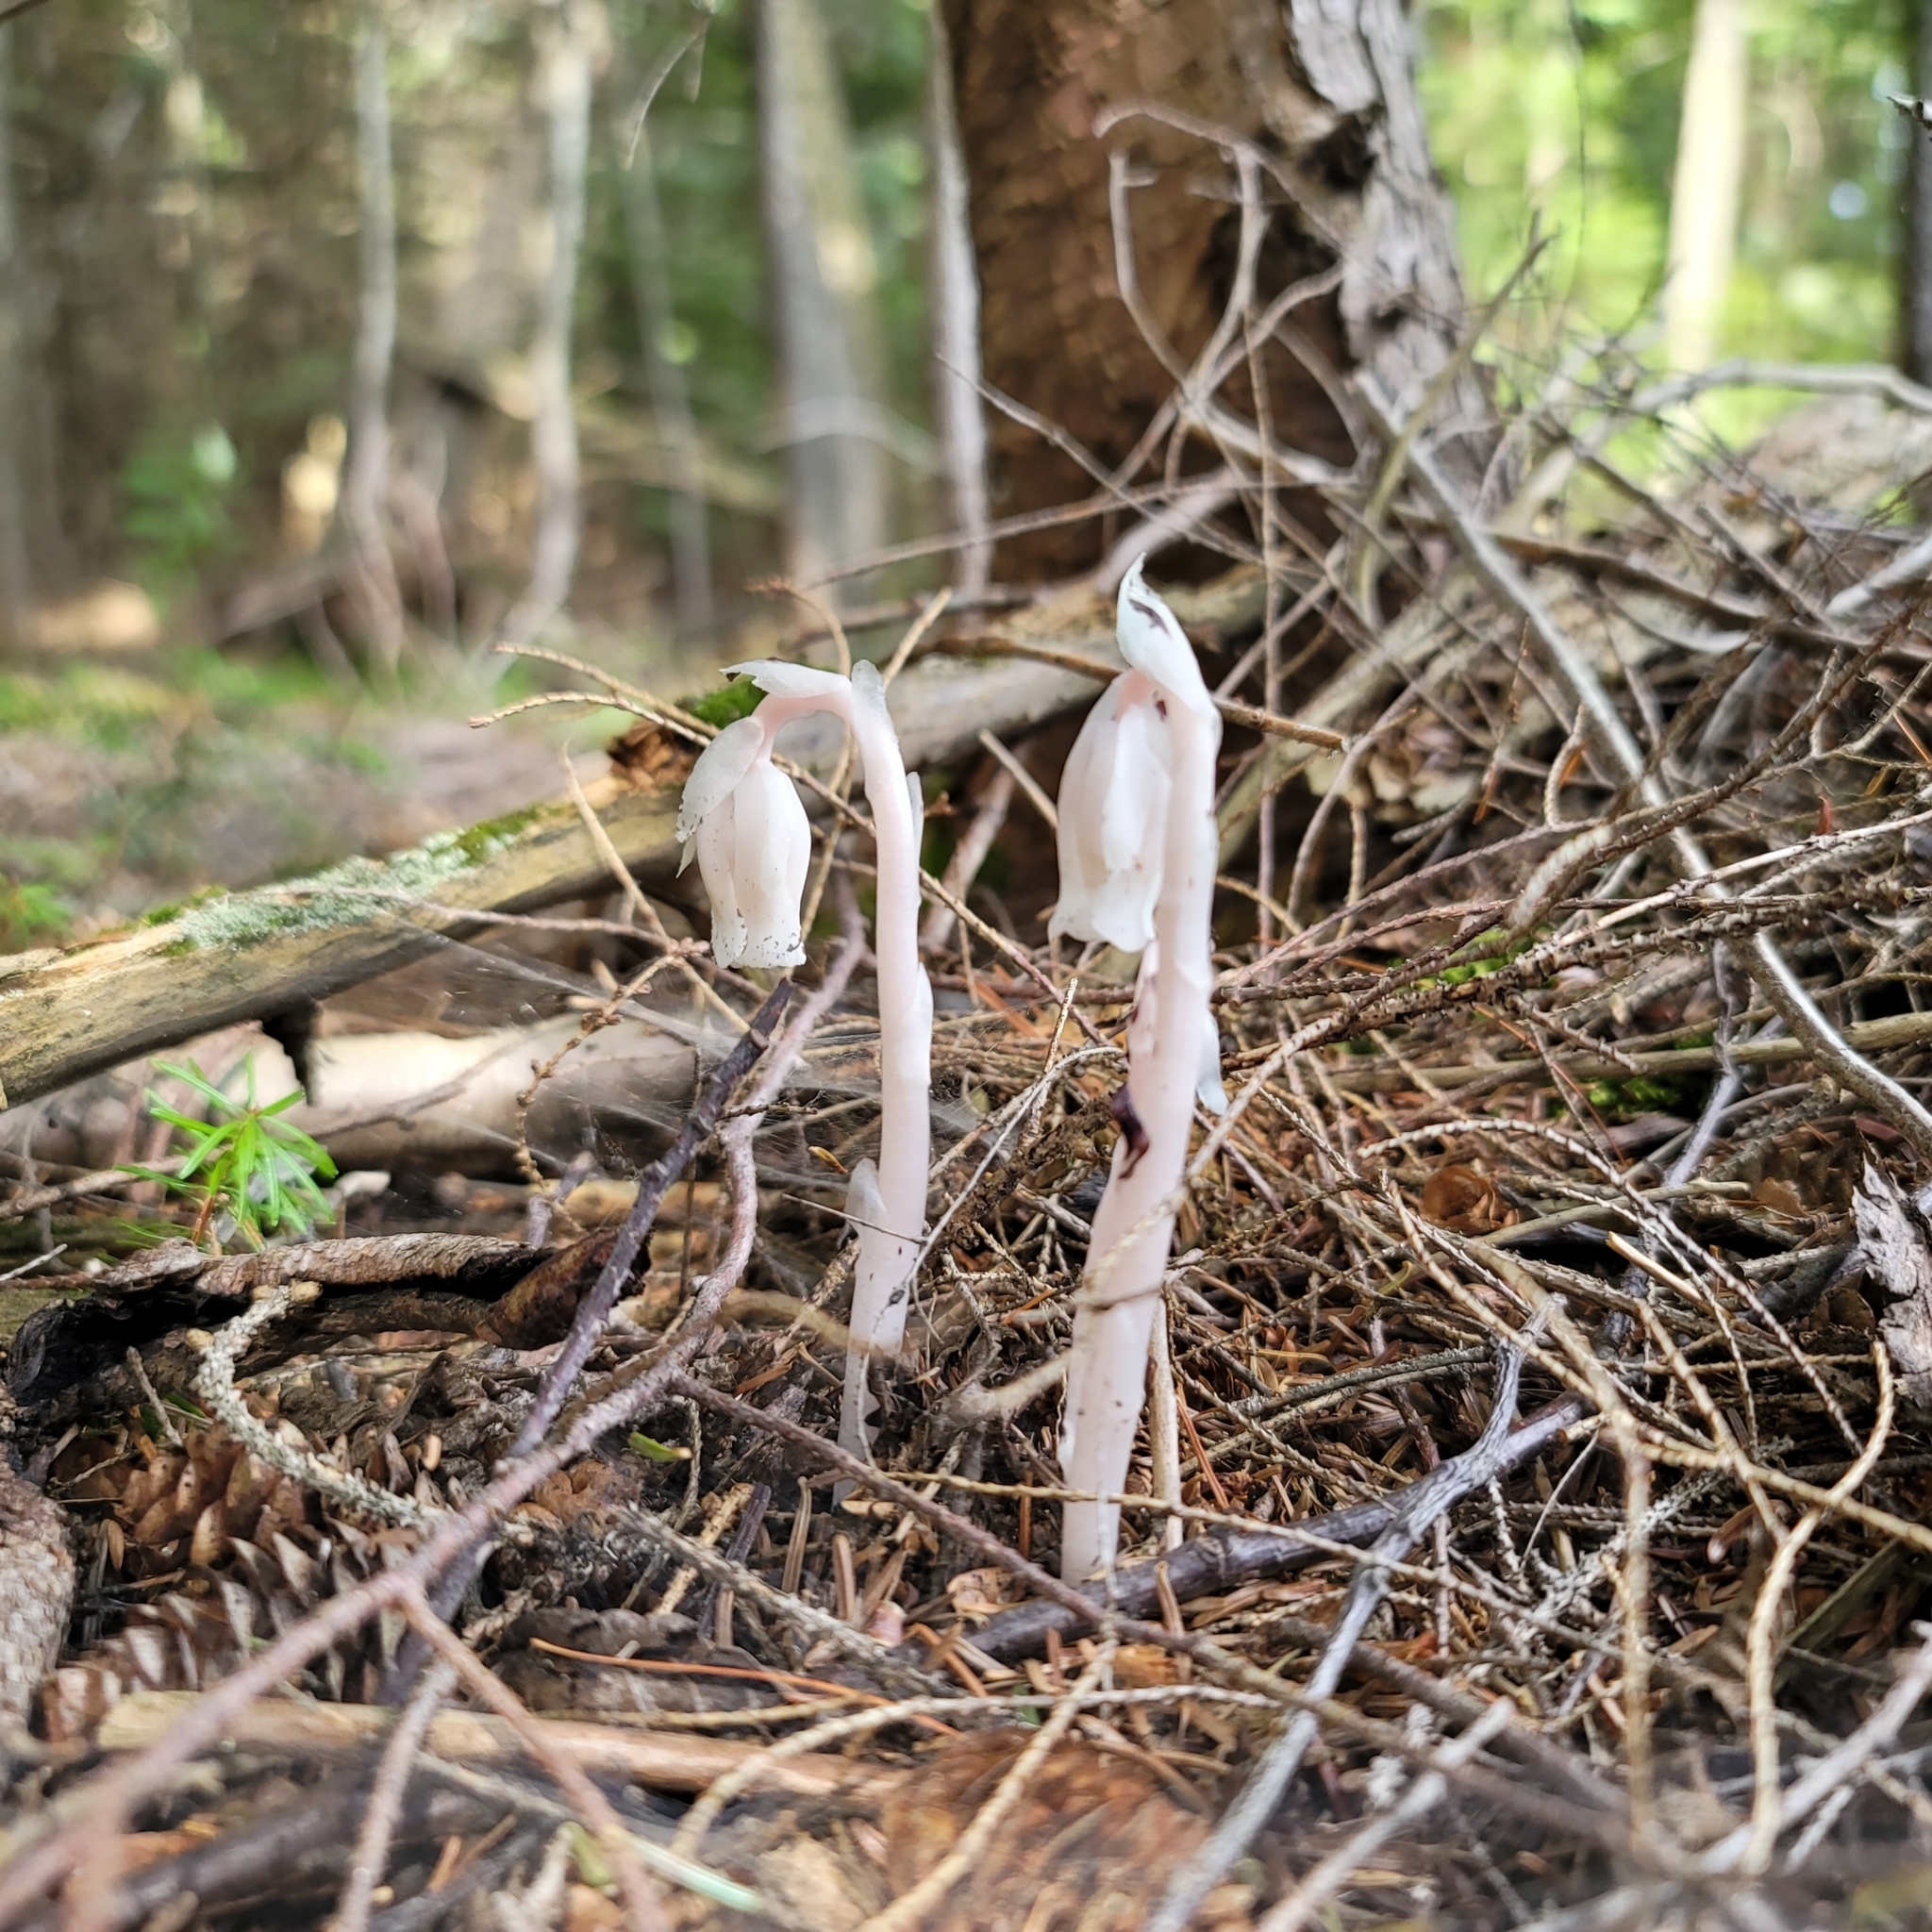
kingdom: Plantae
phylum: Tracheophyta
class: Magnoliopsida
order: Ericales
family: Ericaceae
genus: Monotropa
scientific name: Monotropa uniflora
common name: Convulsion root
